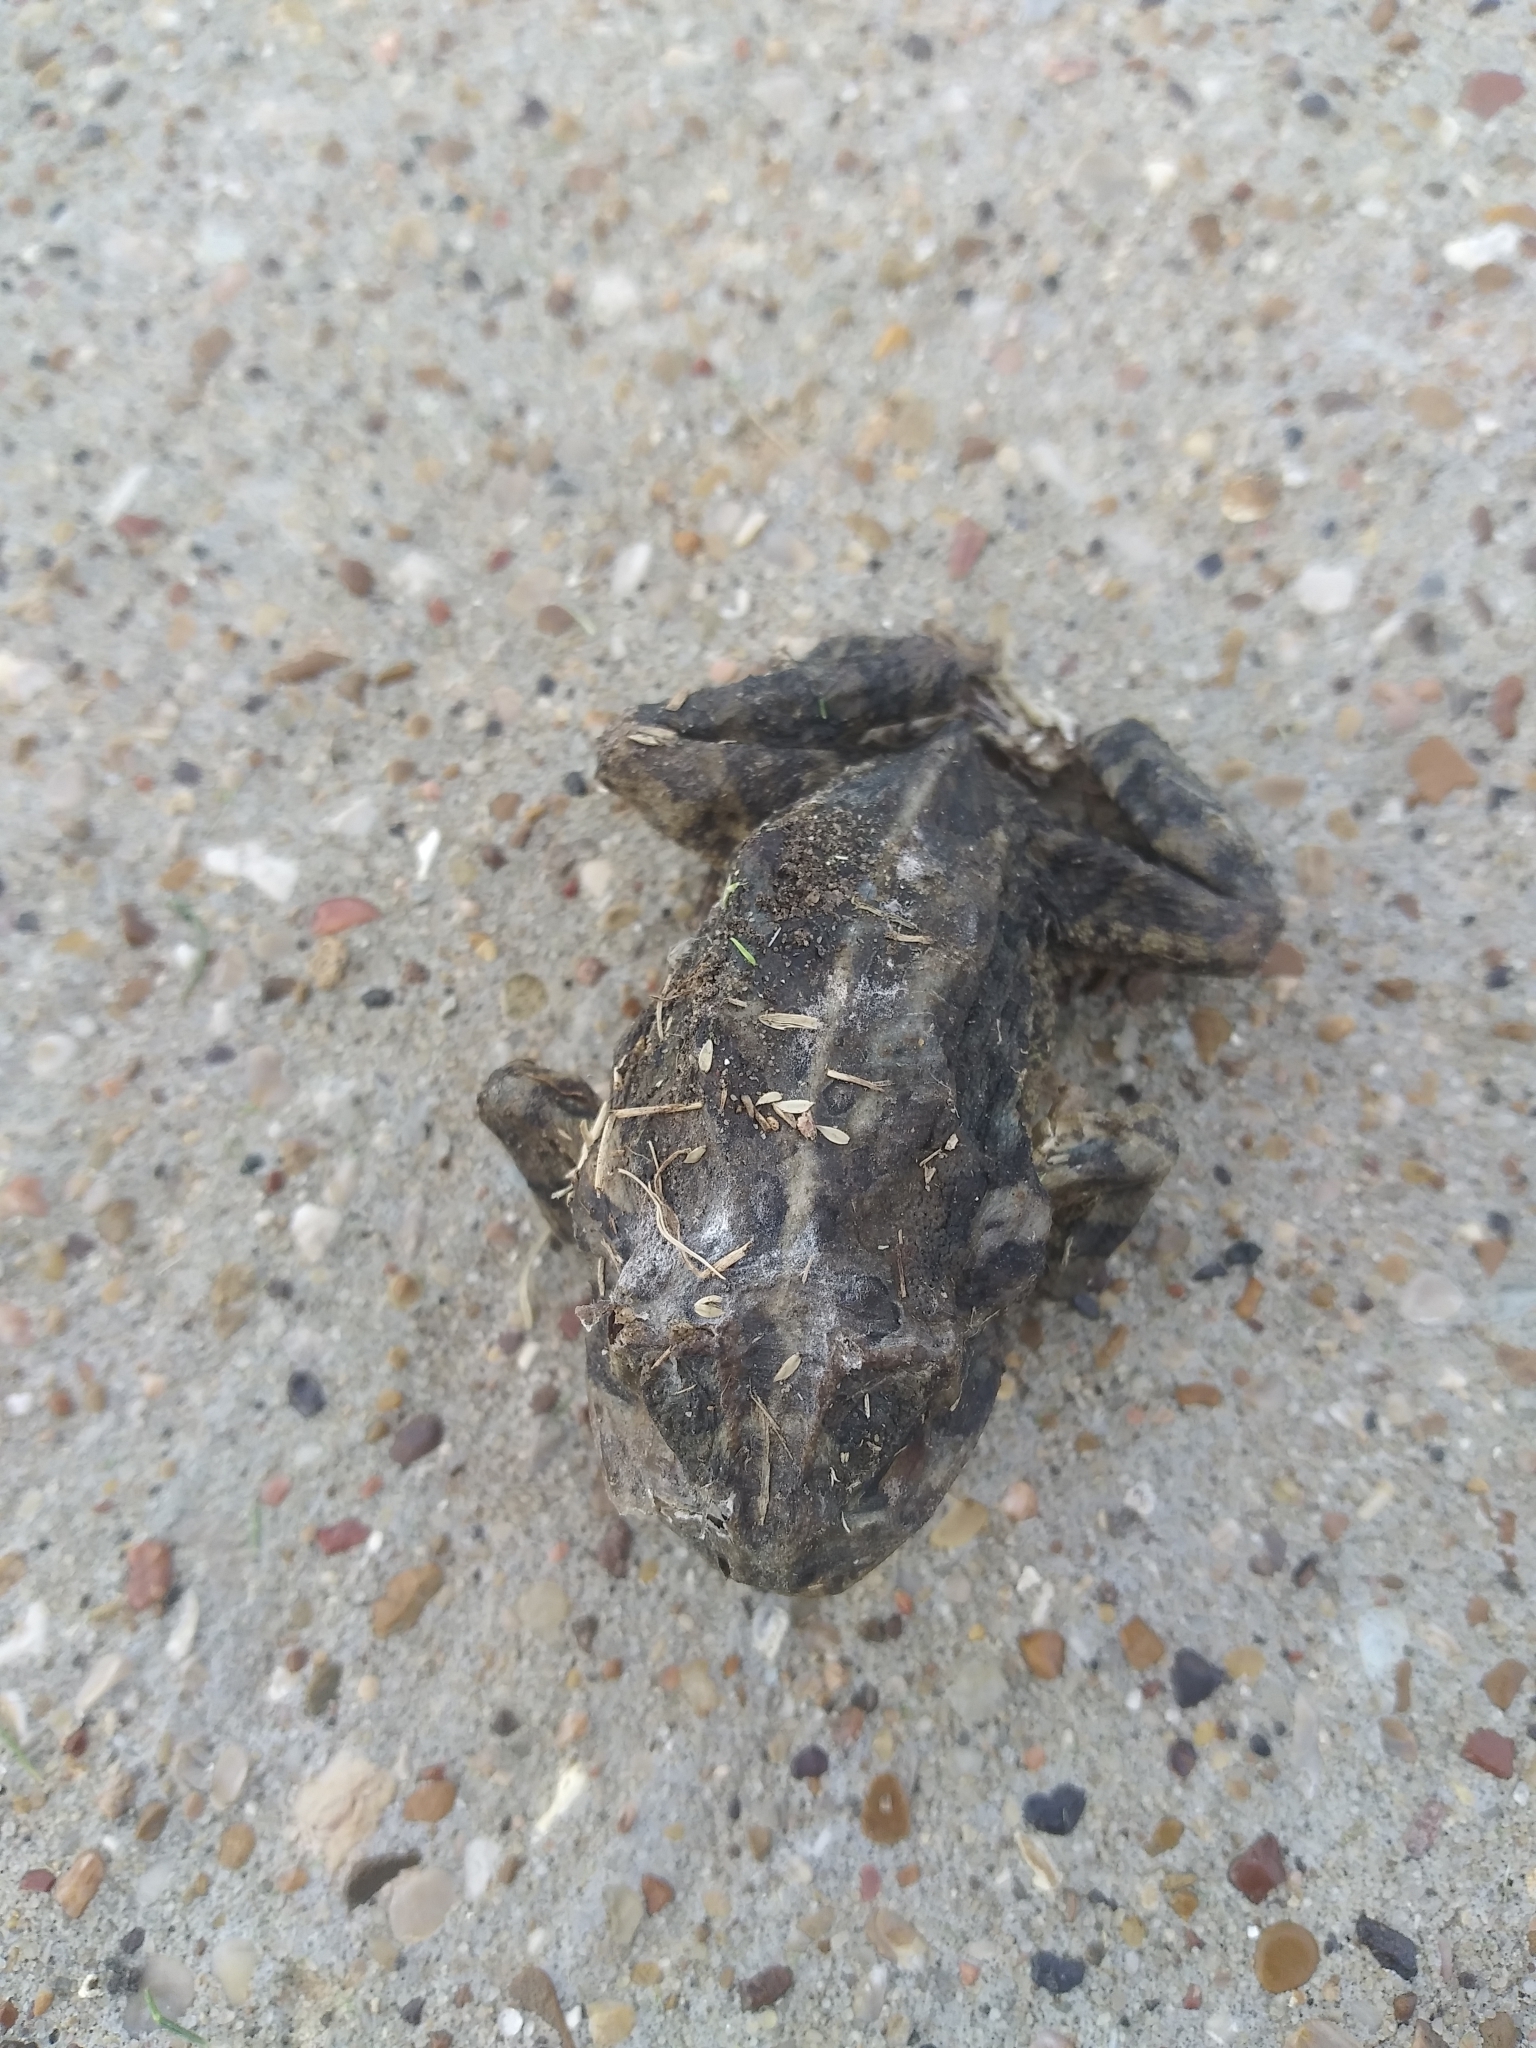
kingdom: Animalia
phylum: Chordata
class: Amphibia
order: Anura
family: Bufonidae
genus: Incilius
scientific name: Incilius nebulifer
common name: Gulf coast toad
